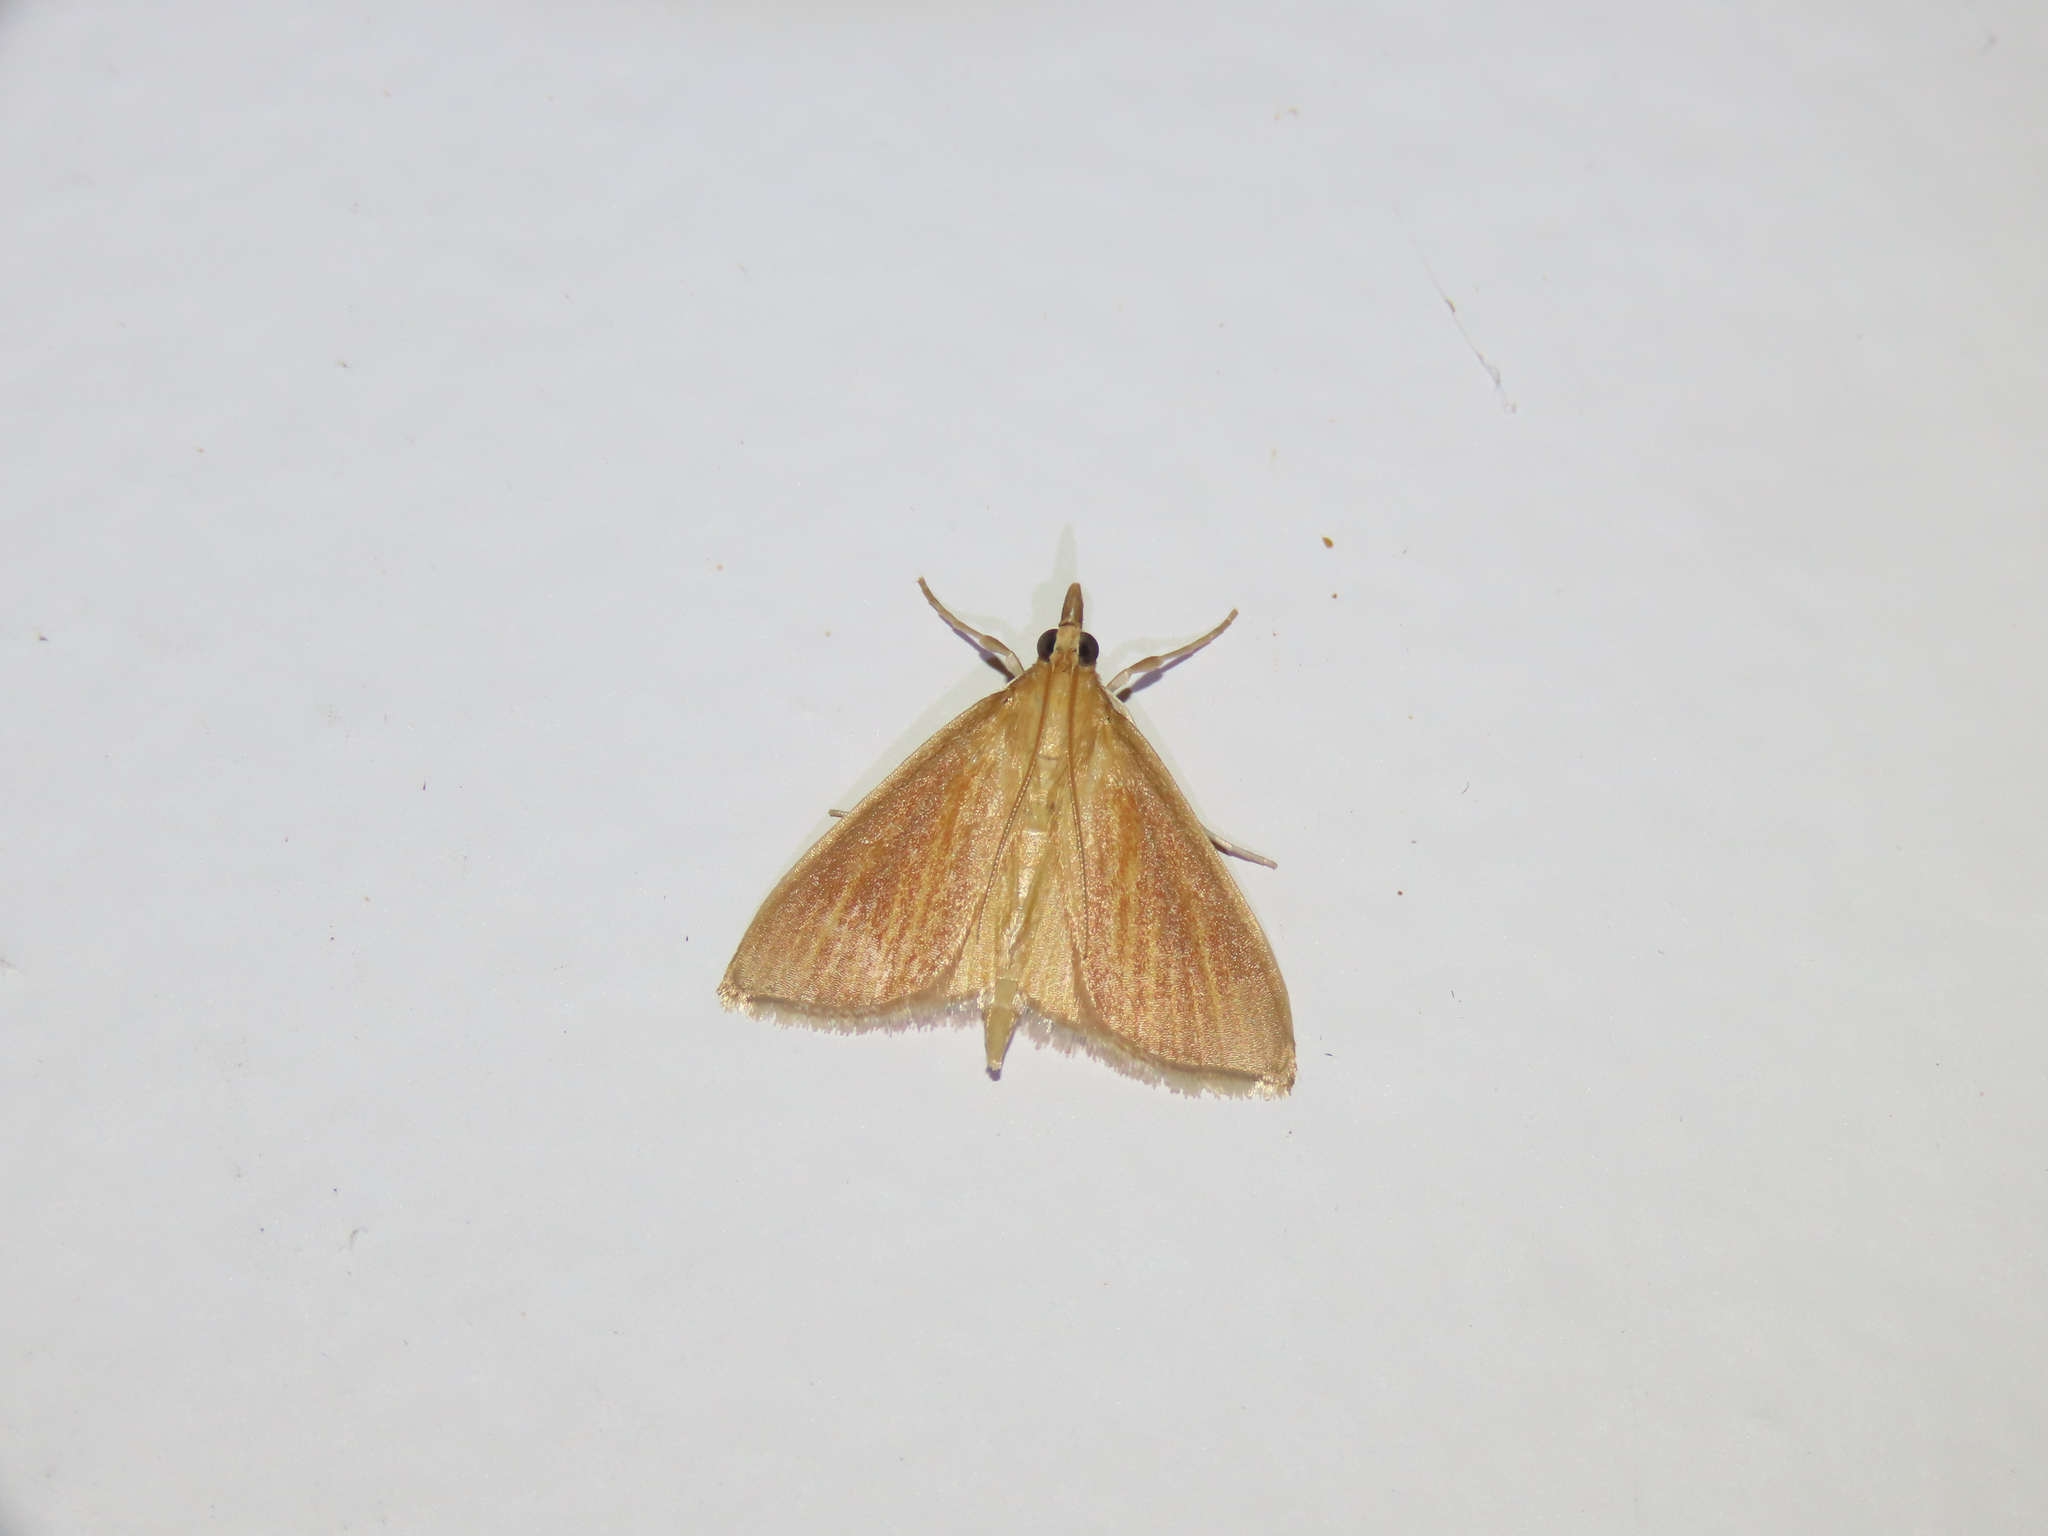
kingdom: Animalia
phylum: Arthropoda
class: Insecta
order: Lepidoptera
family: Crambidae
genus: Nascia
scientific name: Nascia acutellus
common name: Streaked orange moth
